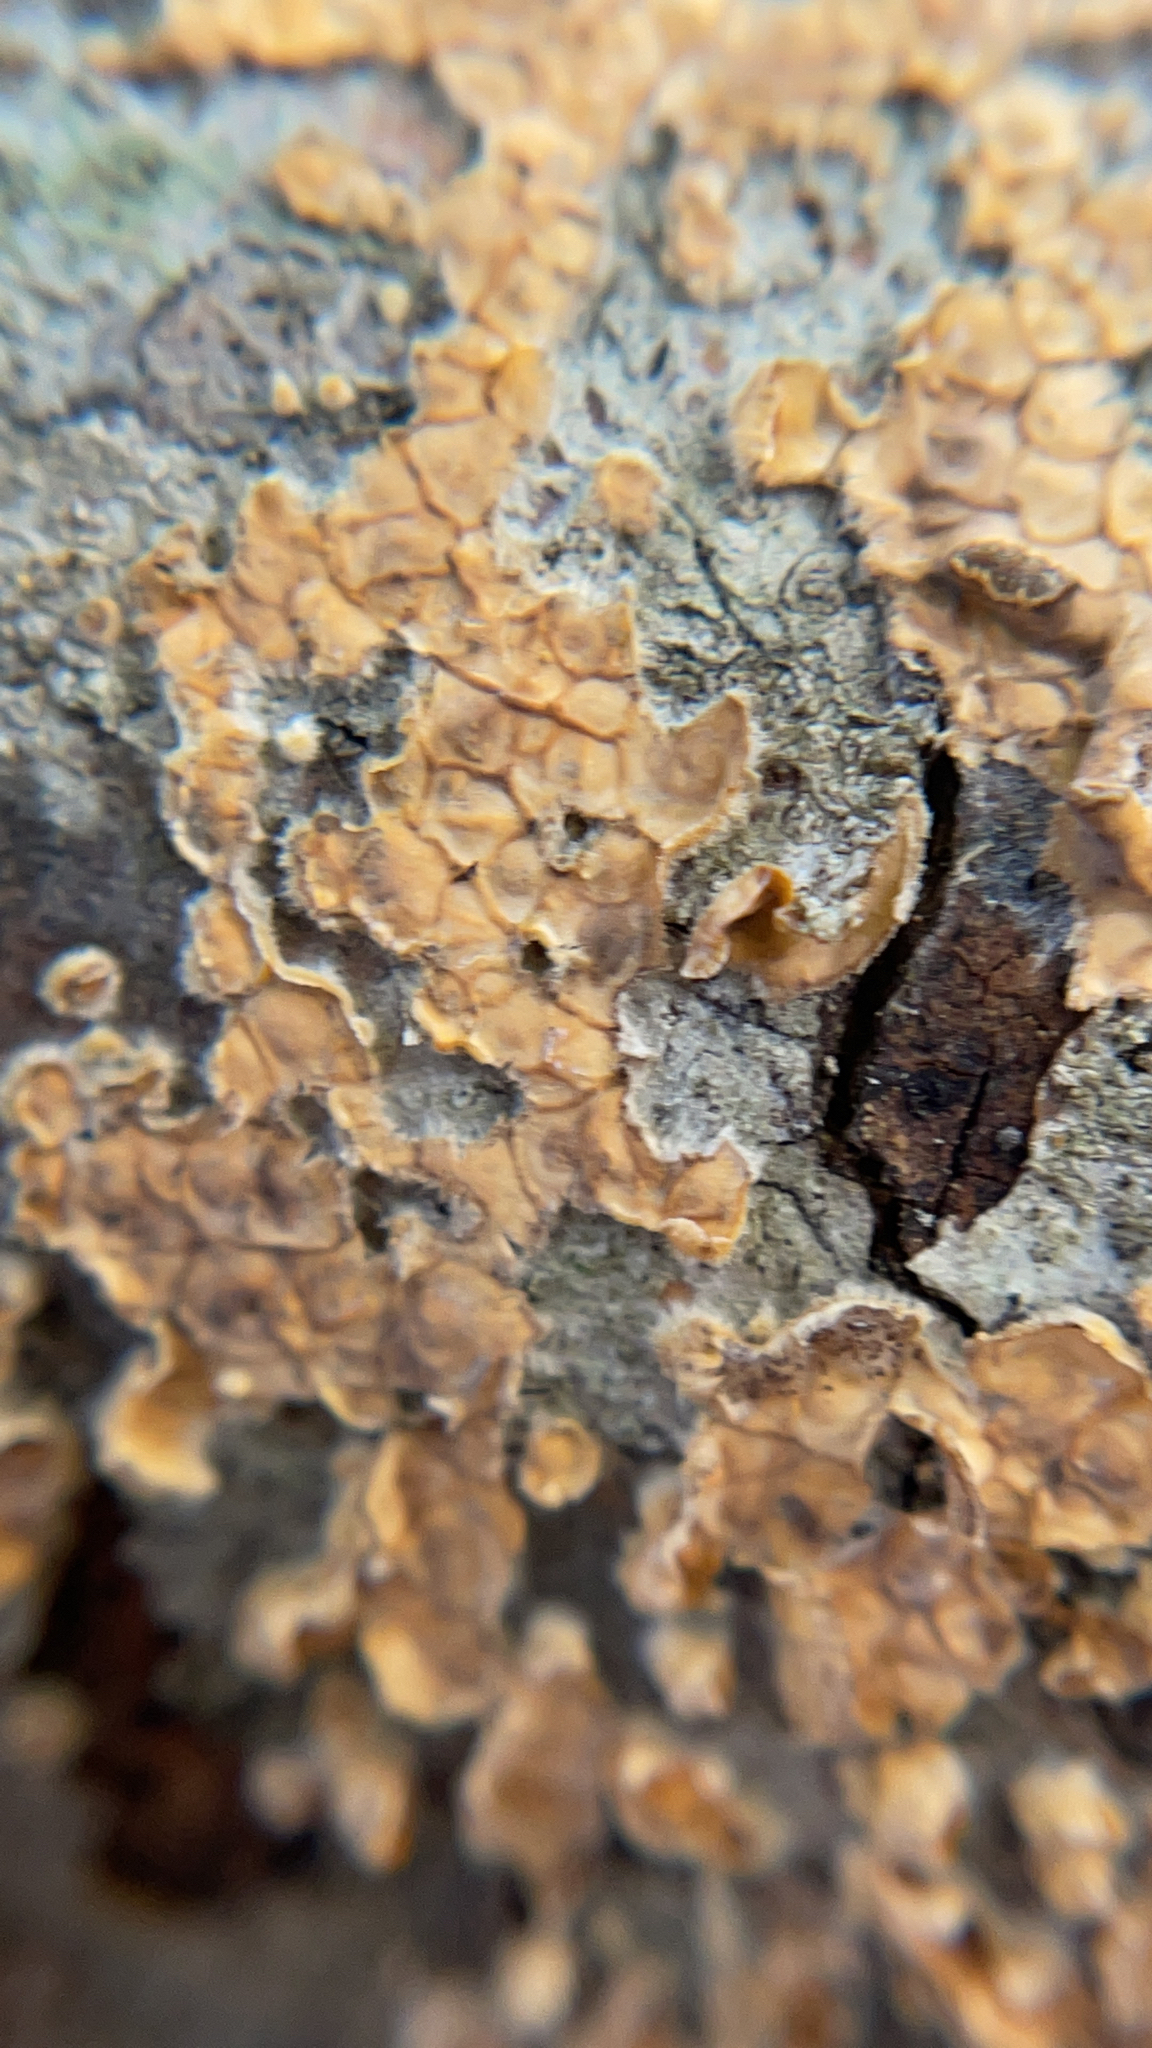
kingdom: Fungi
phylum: Basidiomycota
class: Agaricomycetes
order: Russulales
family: Stereaceae
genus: Stereum
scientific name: Stereum complicatum
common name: Crowded parchment
